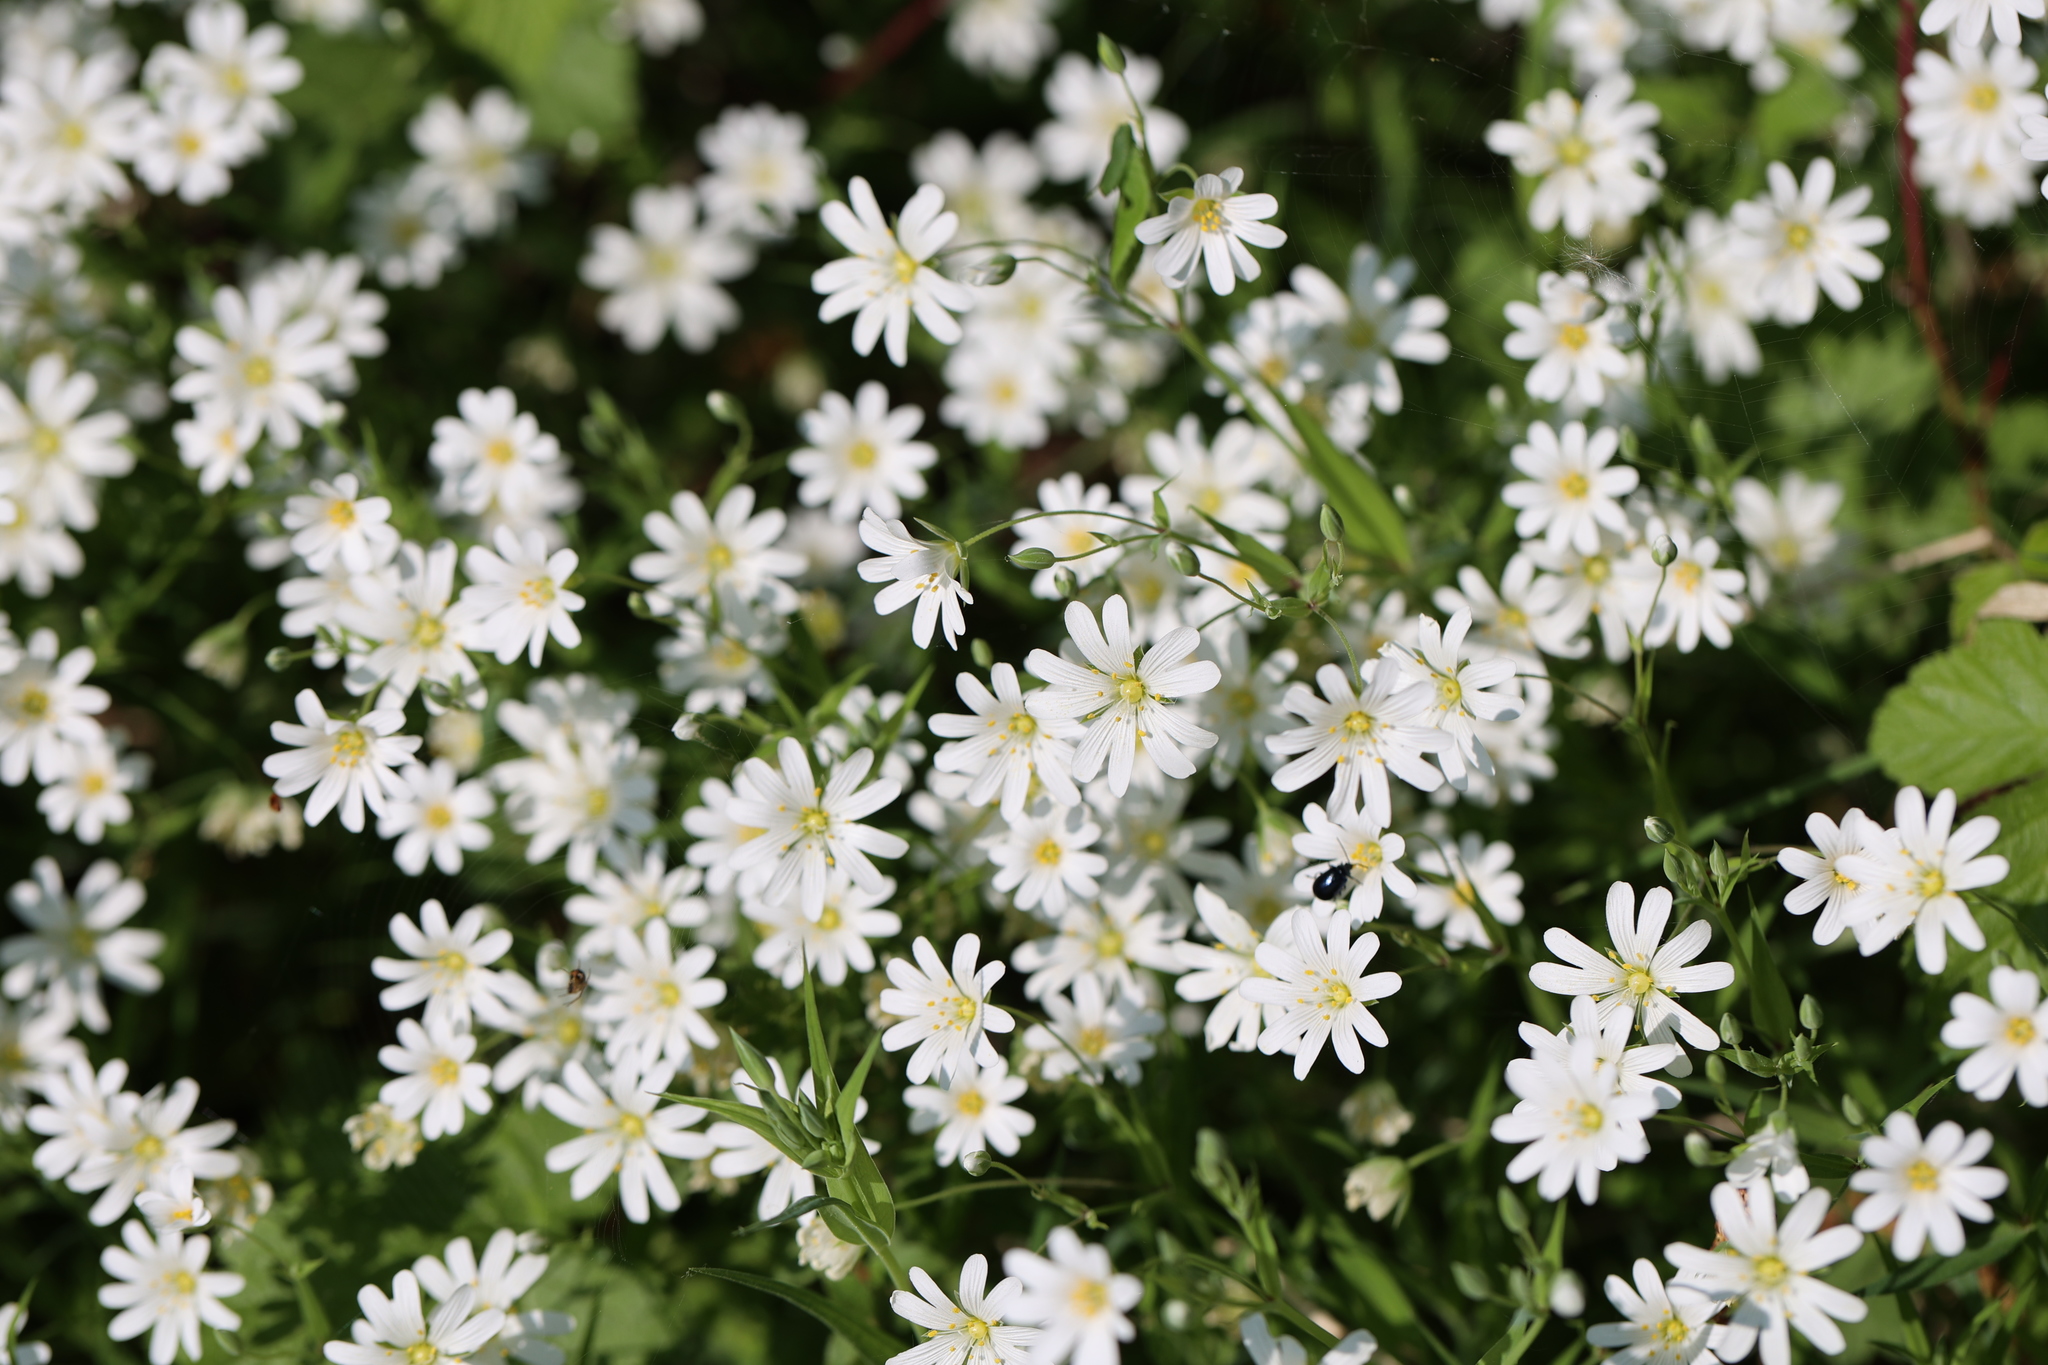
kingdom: Plantae
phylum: Tracheophyta
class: Magnoliopsida
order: Caryophyllales
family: Caryophyllaceae
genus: Rabelera
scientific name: Rabelera holostea
